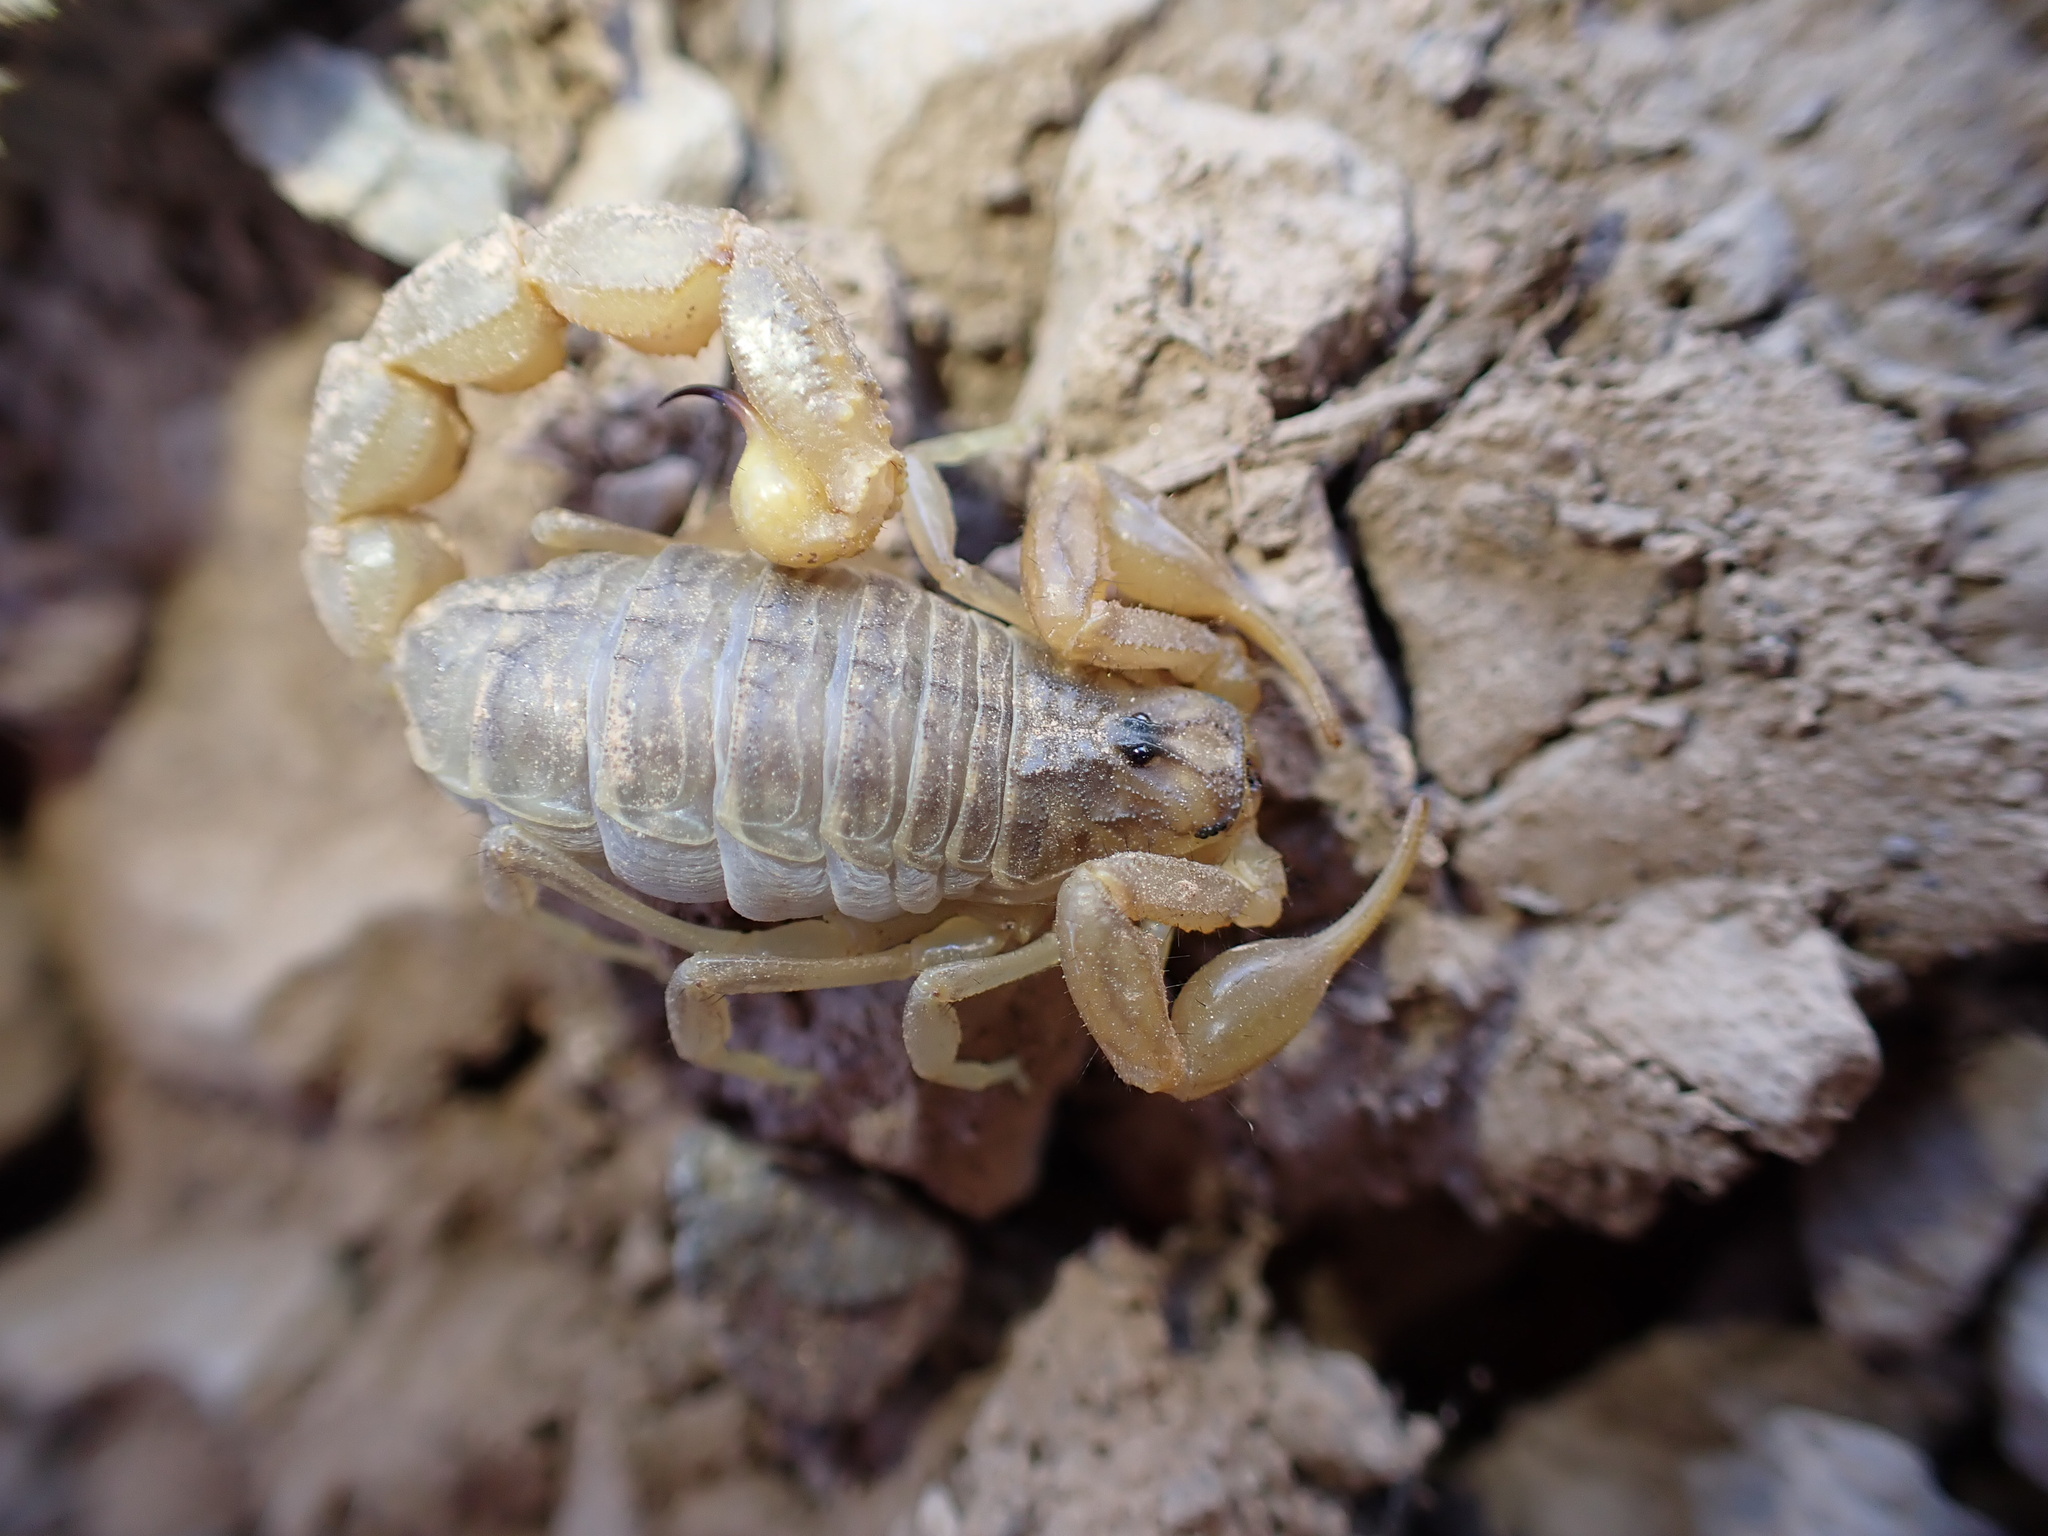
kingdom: Animalia
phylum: Arthropoda
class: Arachnida
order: Scorpiones
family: Buthidae
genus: Mesobuthus
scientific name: Mesobuthus afghanus
